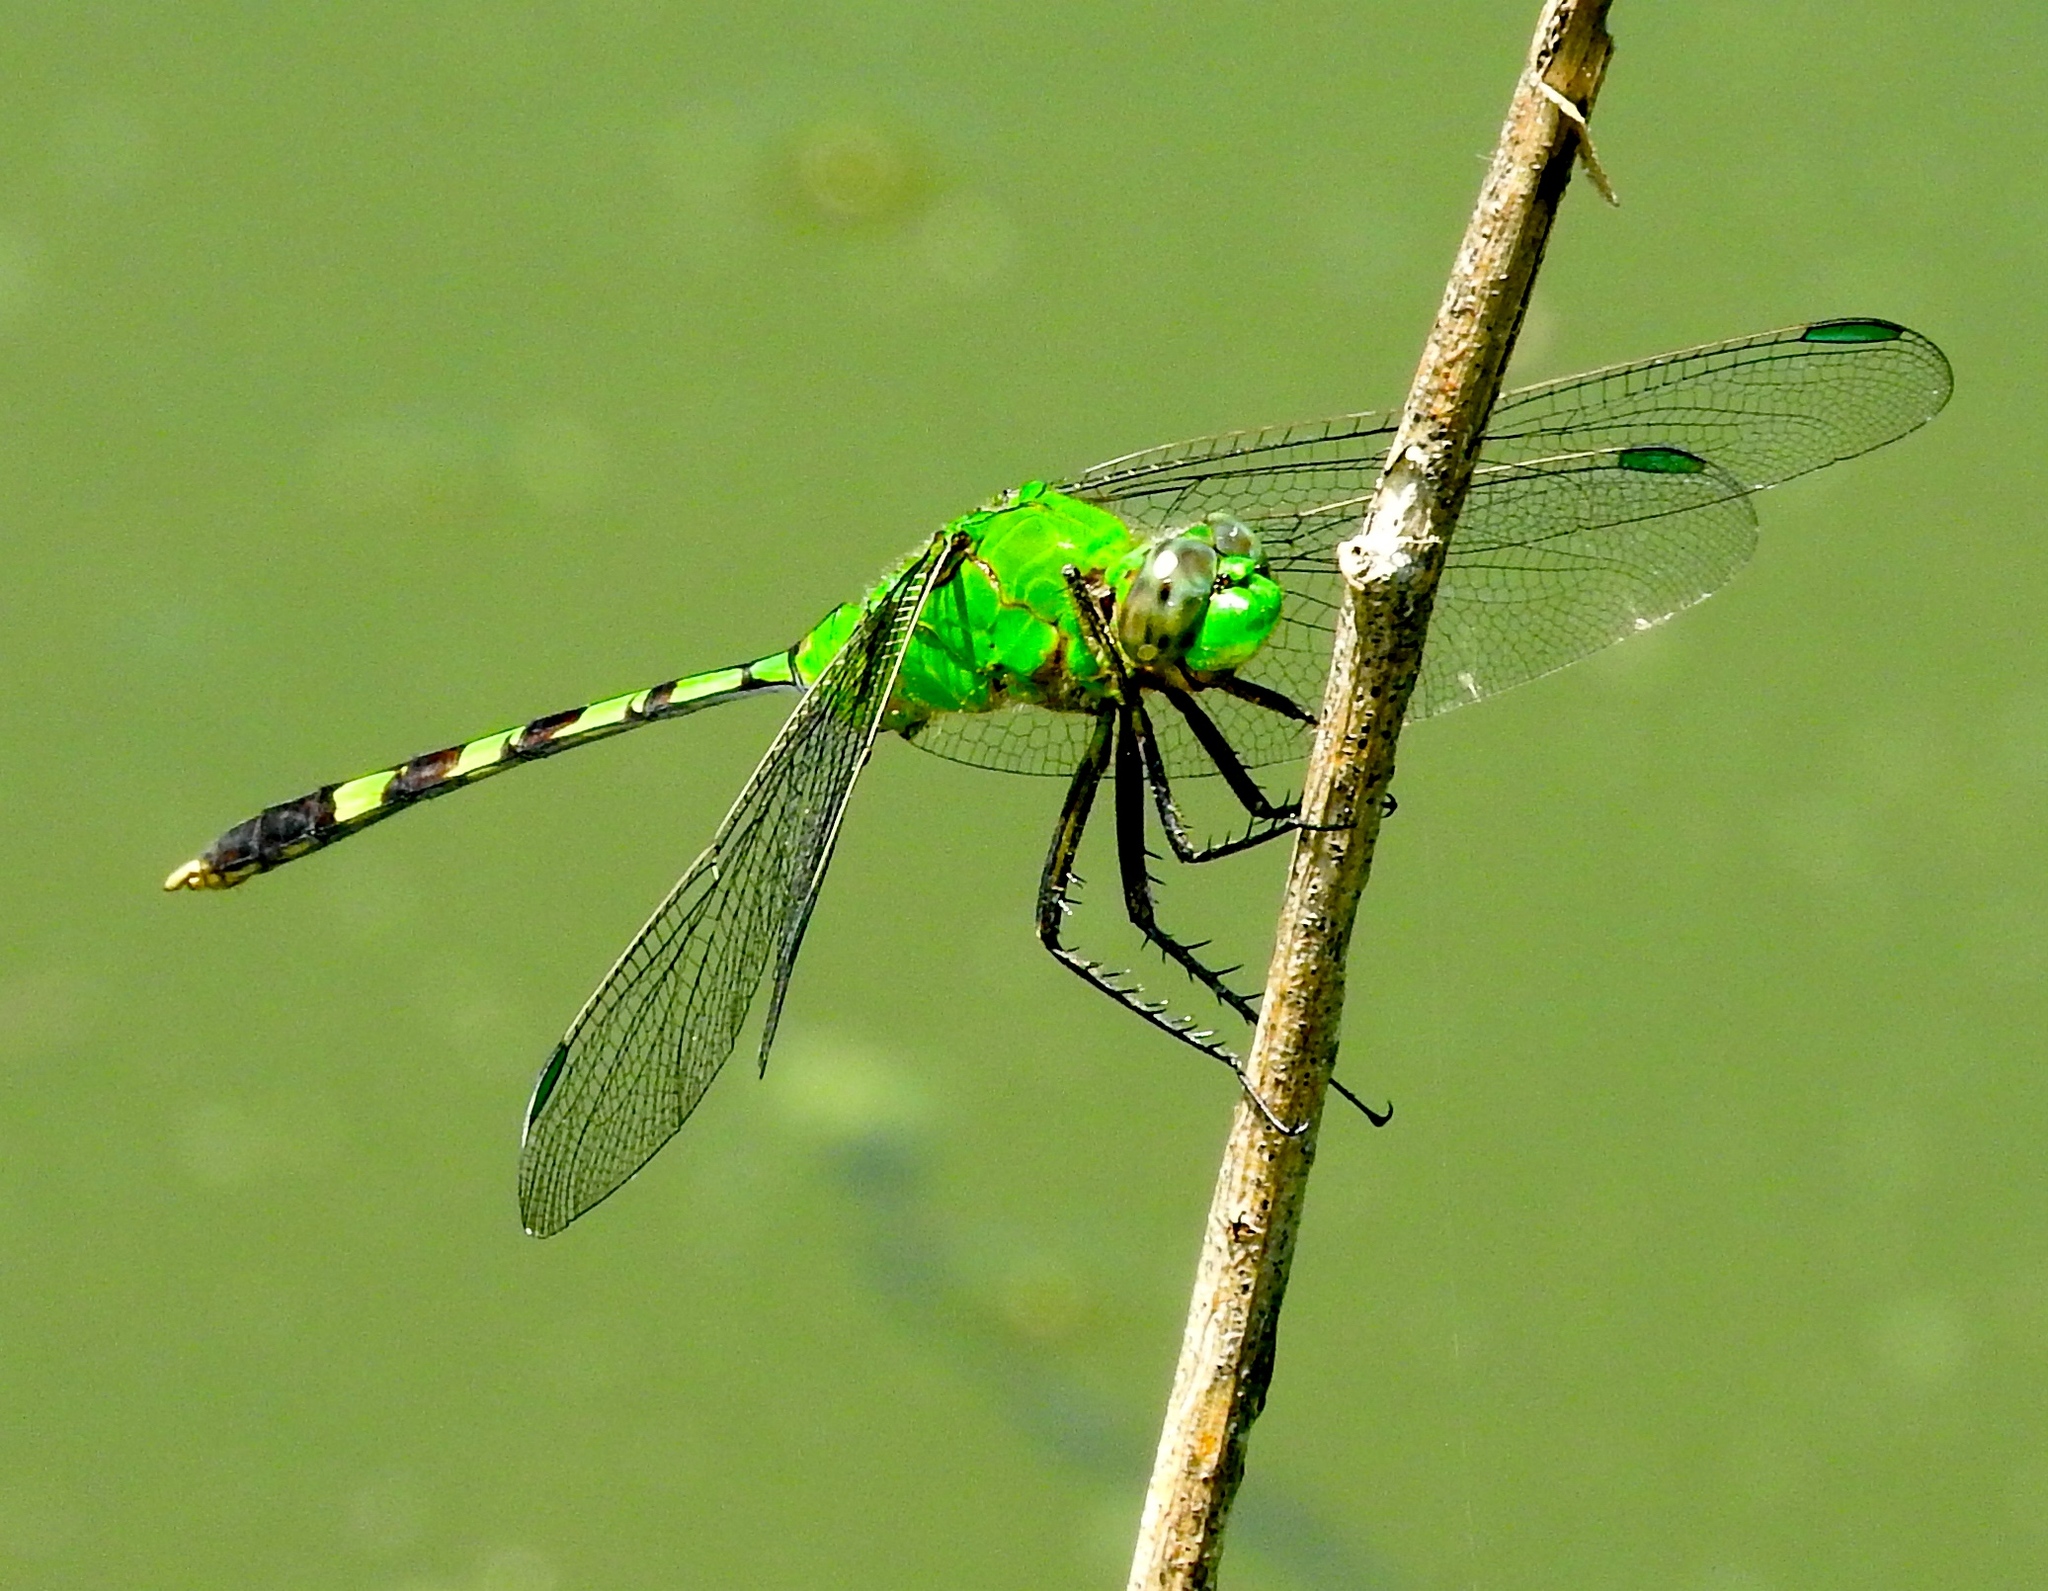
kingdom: Animalia
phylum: Arthropoda
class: Insecta
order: Odonata
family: Libellulidae
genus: Erythemis
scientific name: Erythemis vesiculosa
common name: Great pondhawk
